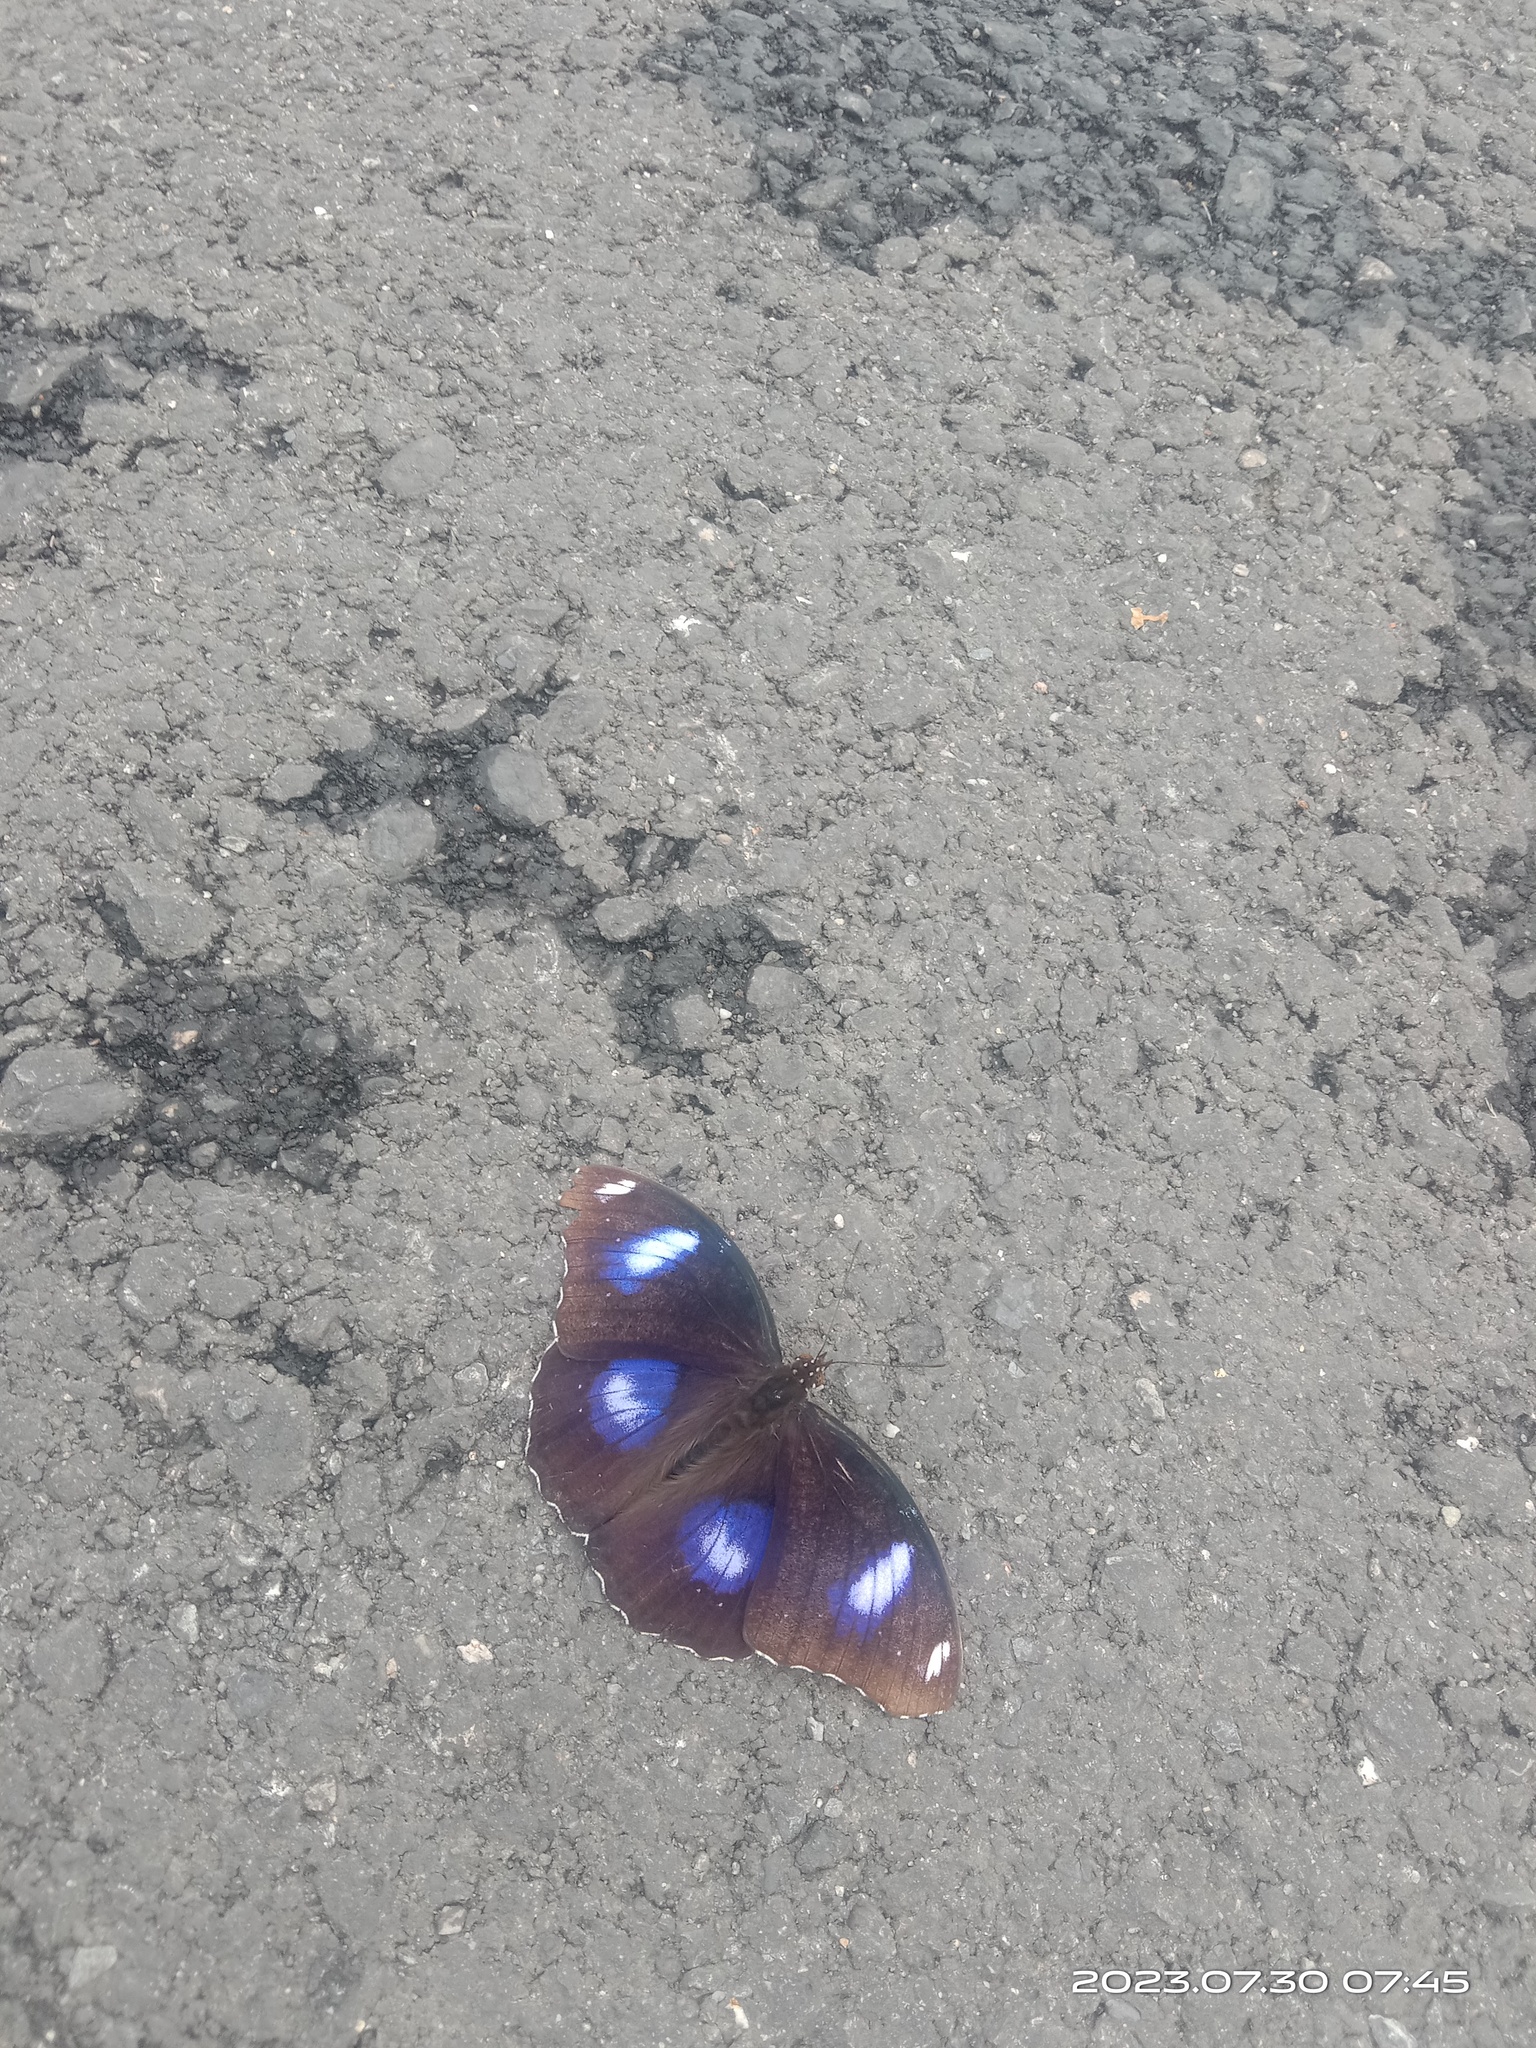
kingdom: Animalia
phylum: Arthropoda
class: Insecta
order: Lepidoptera
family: Nymphalidae
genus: Hypolimnas
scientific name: Hypolimnas bolina
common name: Great eggfly
